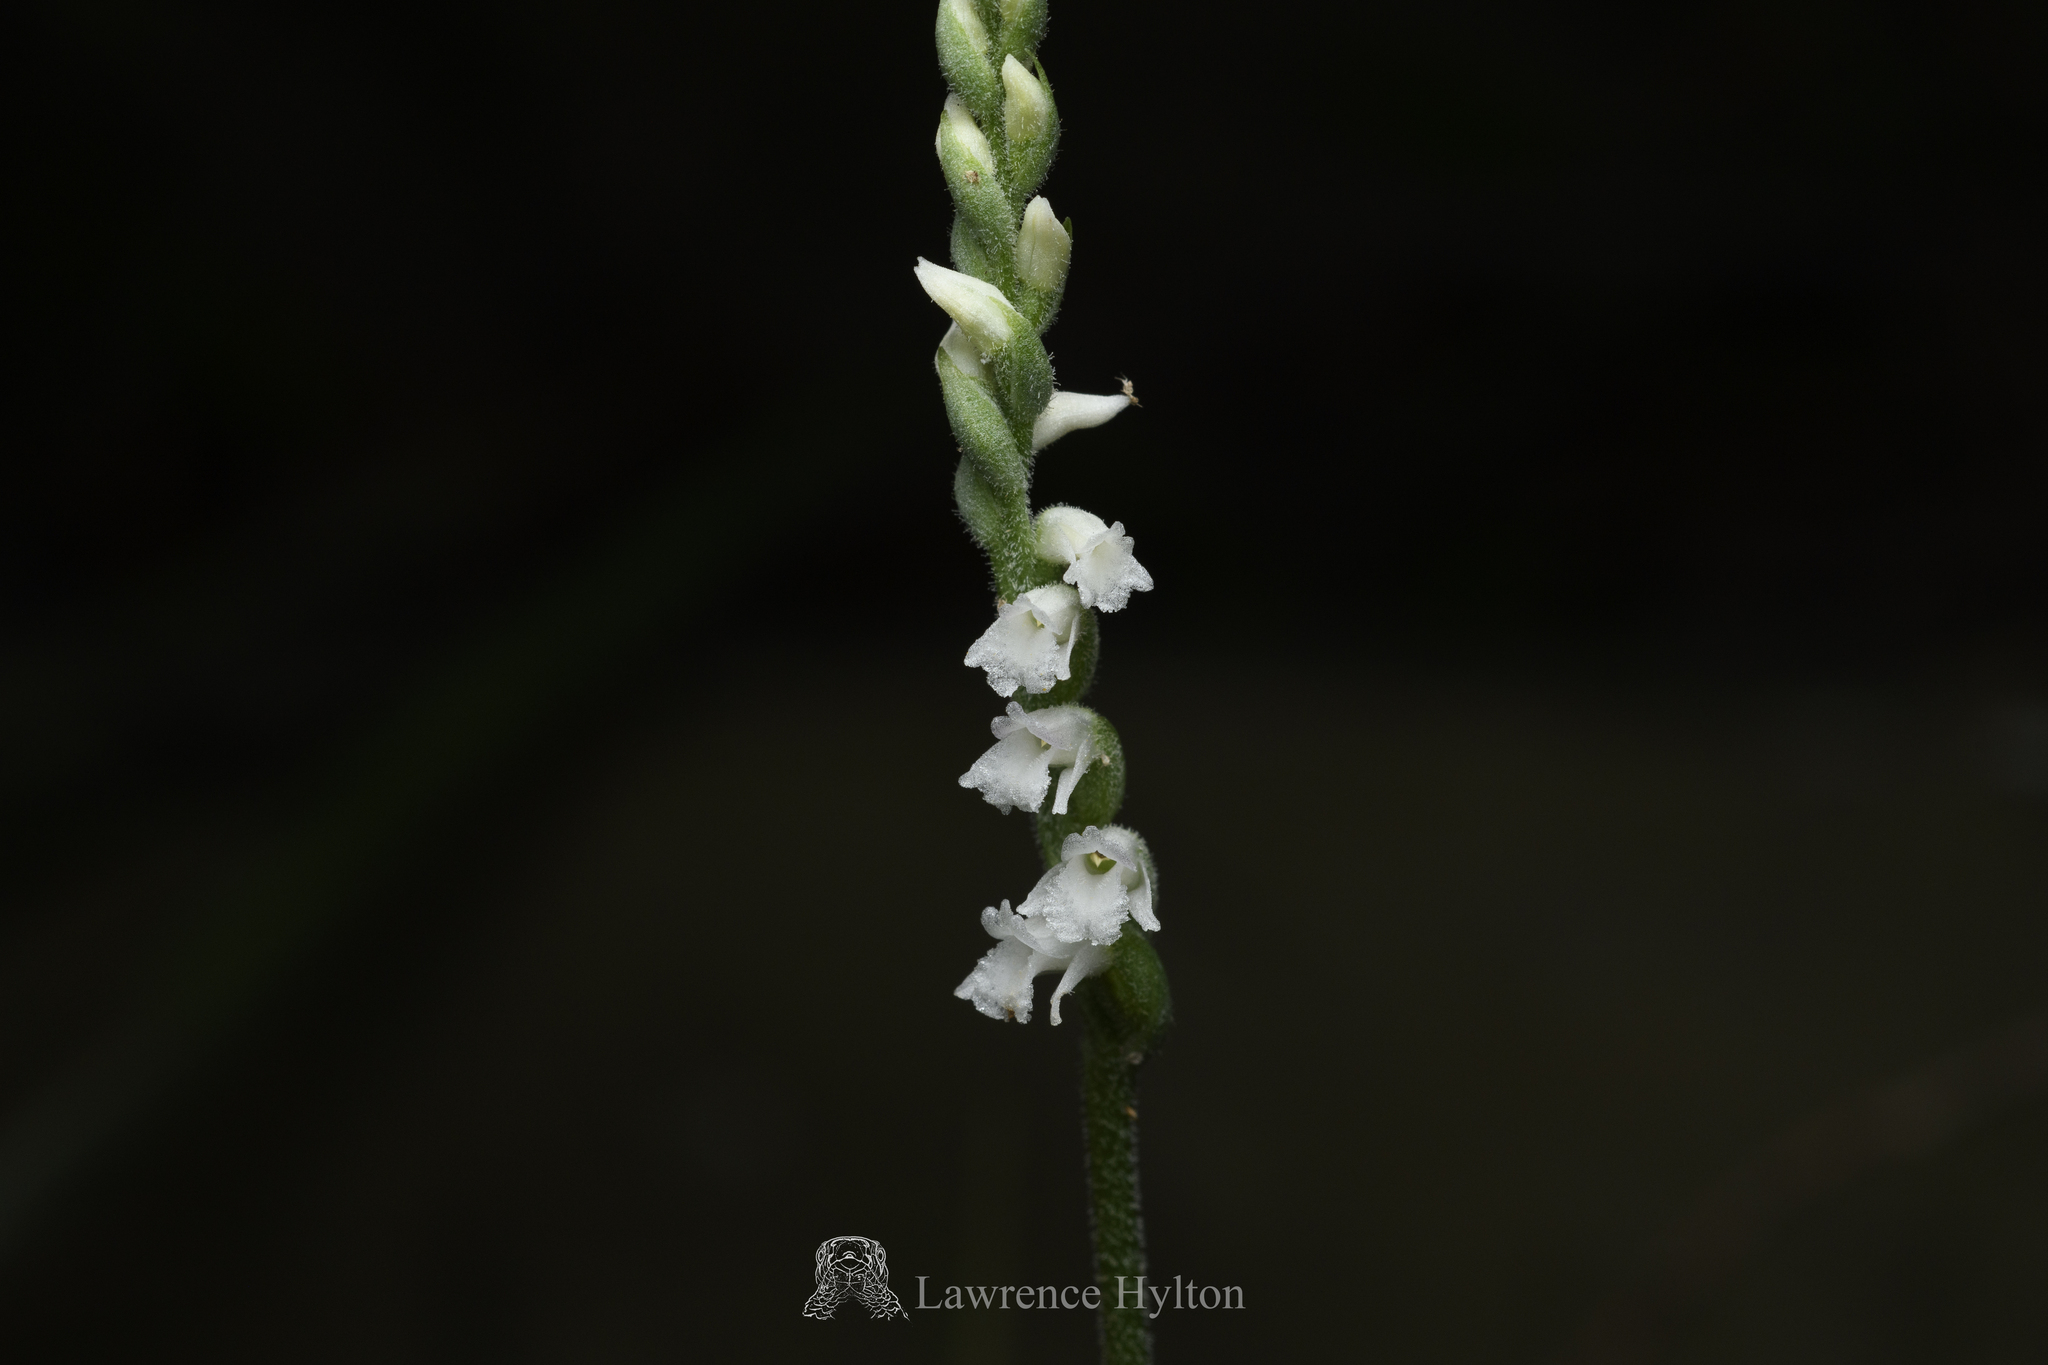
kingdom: Plantae
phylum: Tracheophyta
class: Liliopsida
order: Asparagales
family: Orchidaceae
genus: Spiranthes
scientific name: Spiranthes hongkongensis
